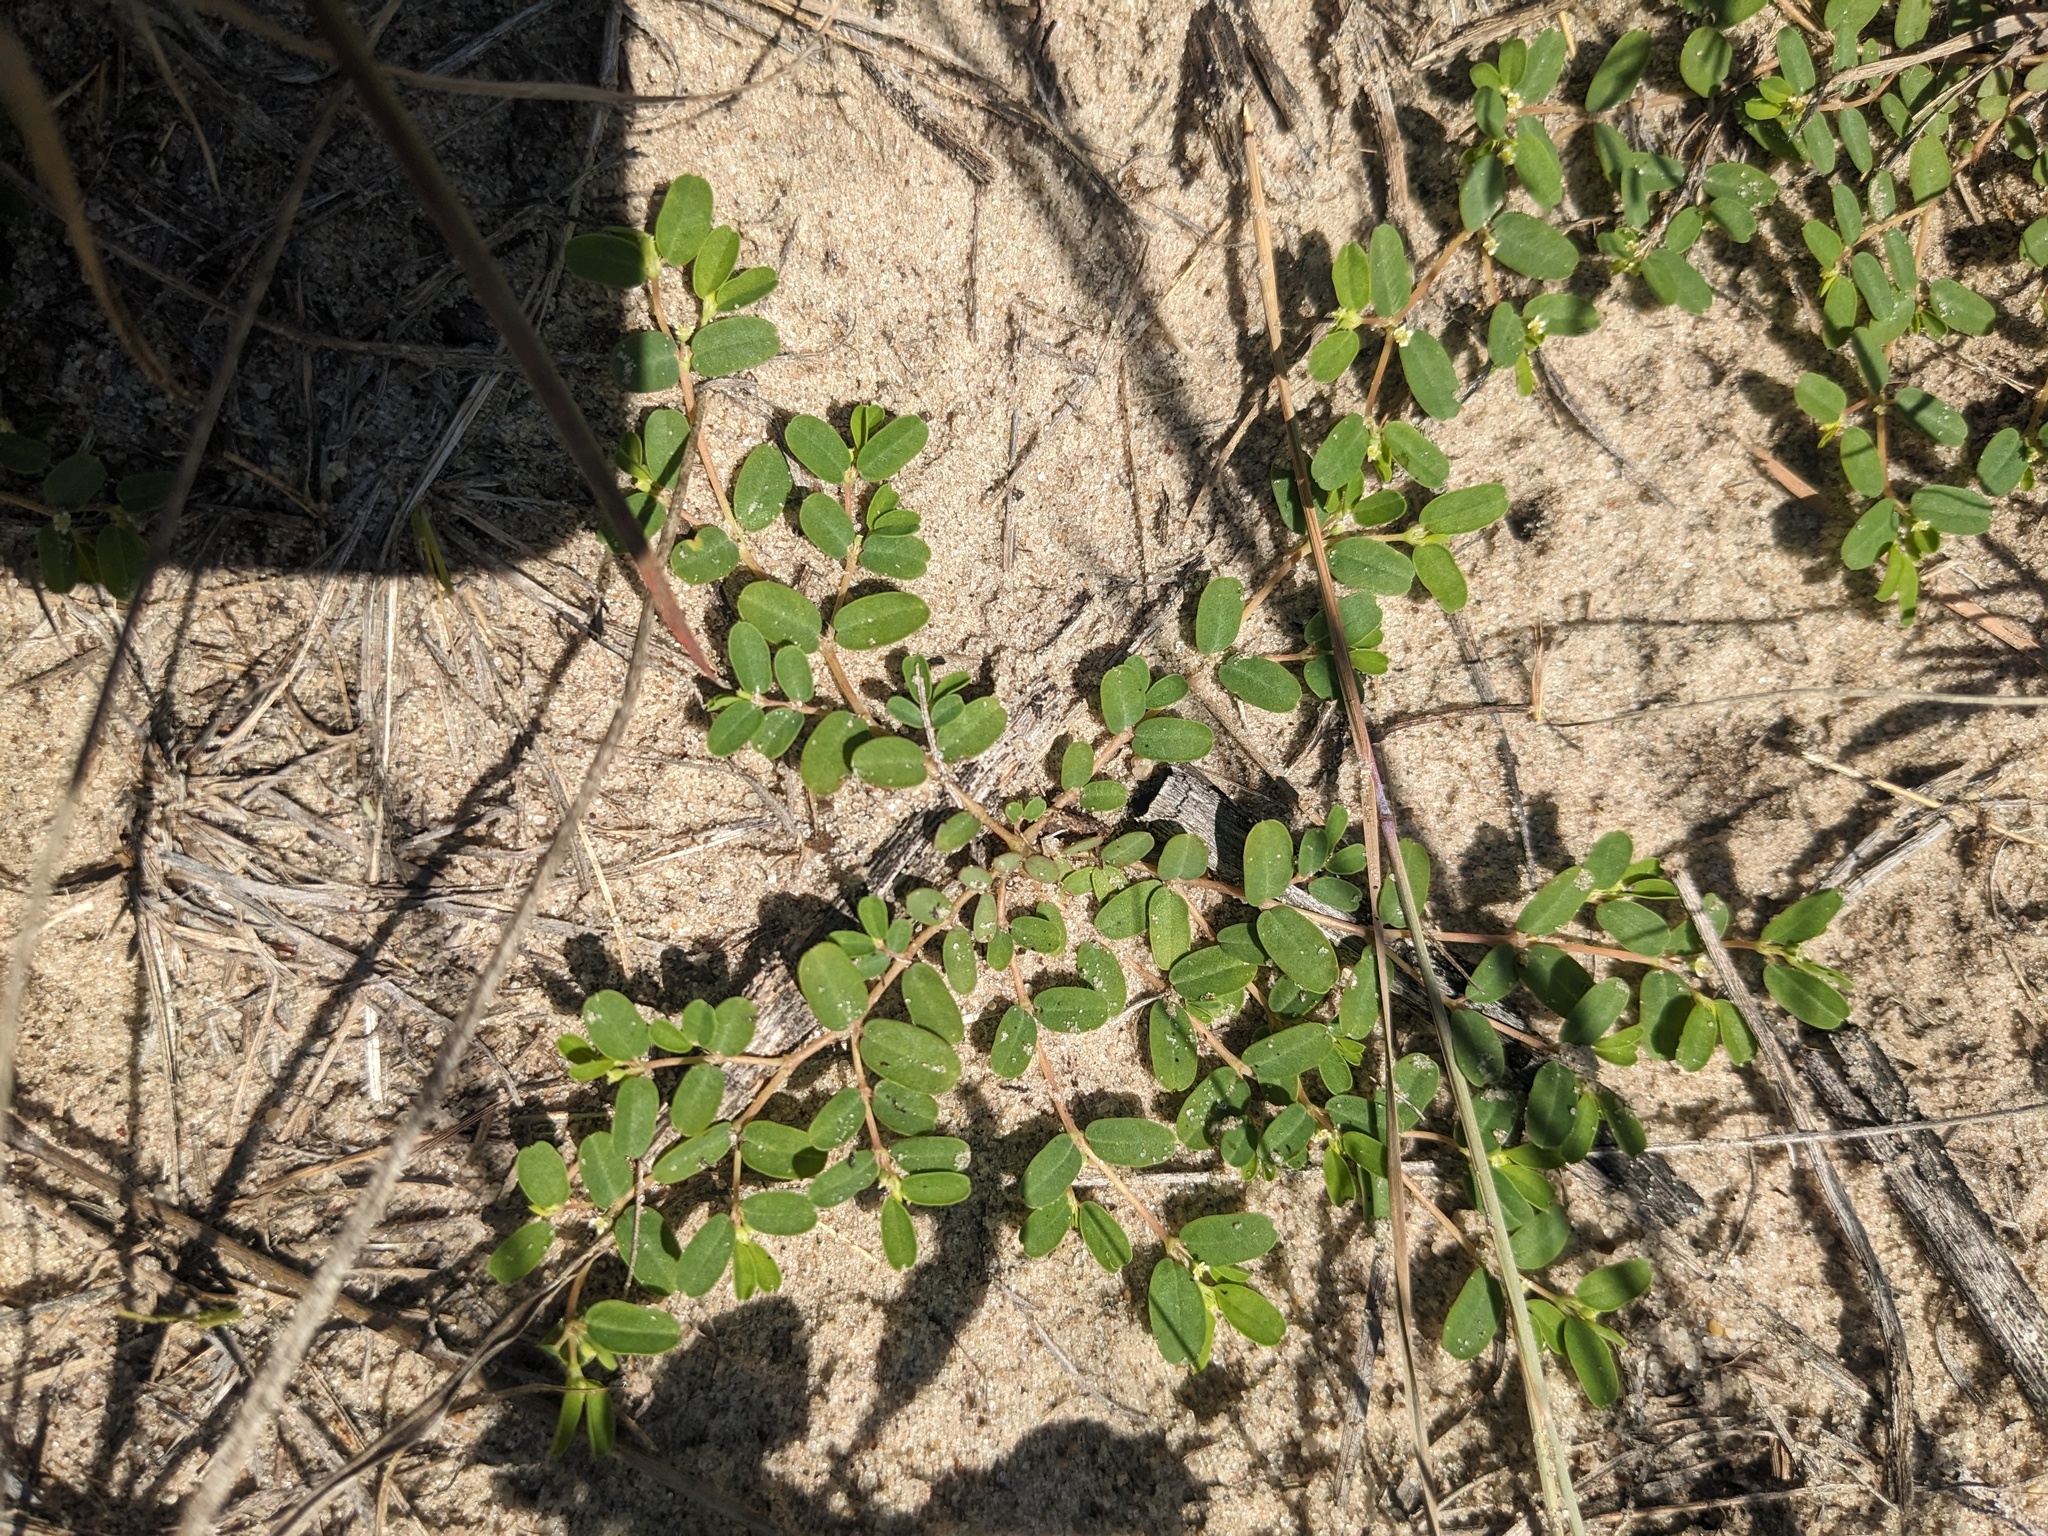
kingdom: Plantae
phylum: Tracheophyta
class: Magnoliopsida
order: Malpighiales
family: Euphorbiaceae
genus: Euphorbia
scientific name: Euphorbia geyeri
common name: Geyer's spurge
